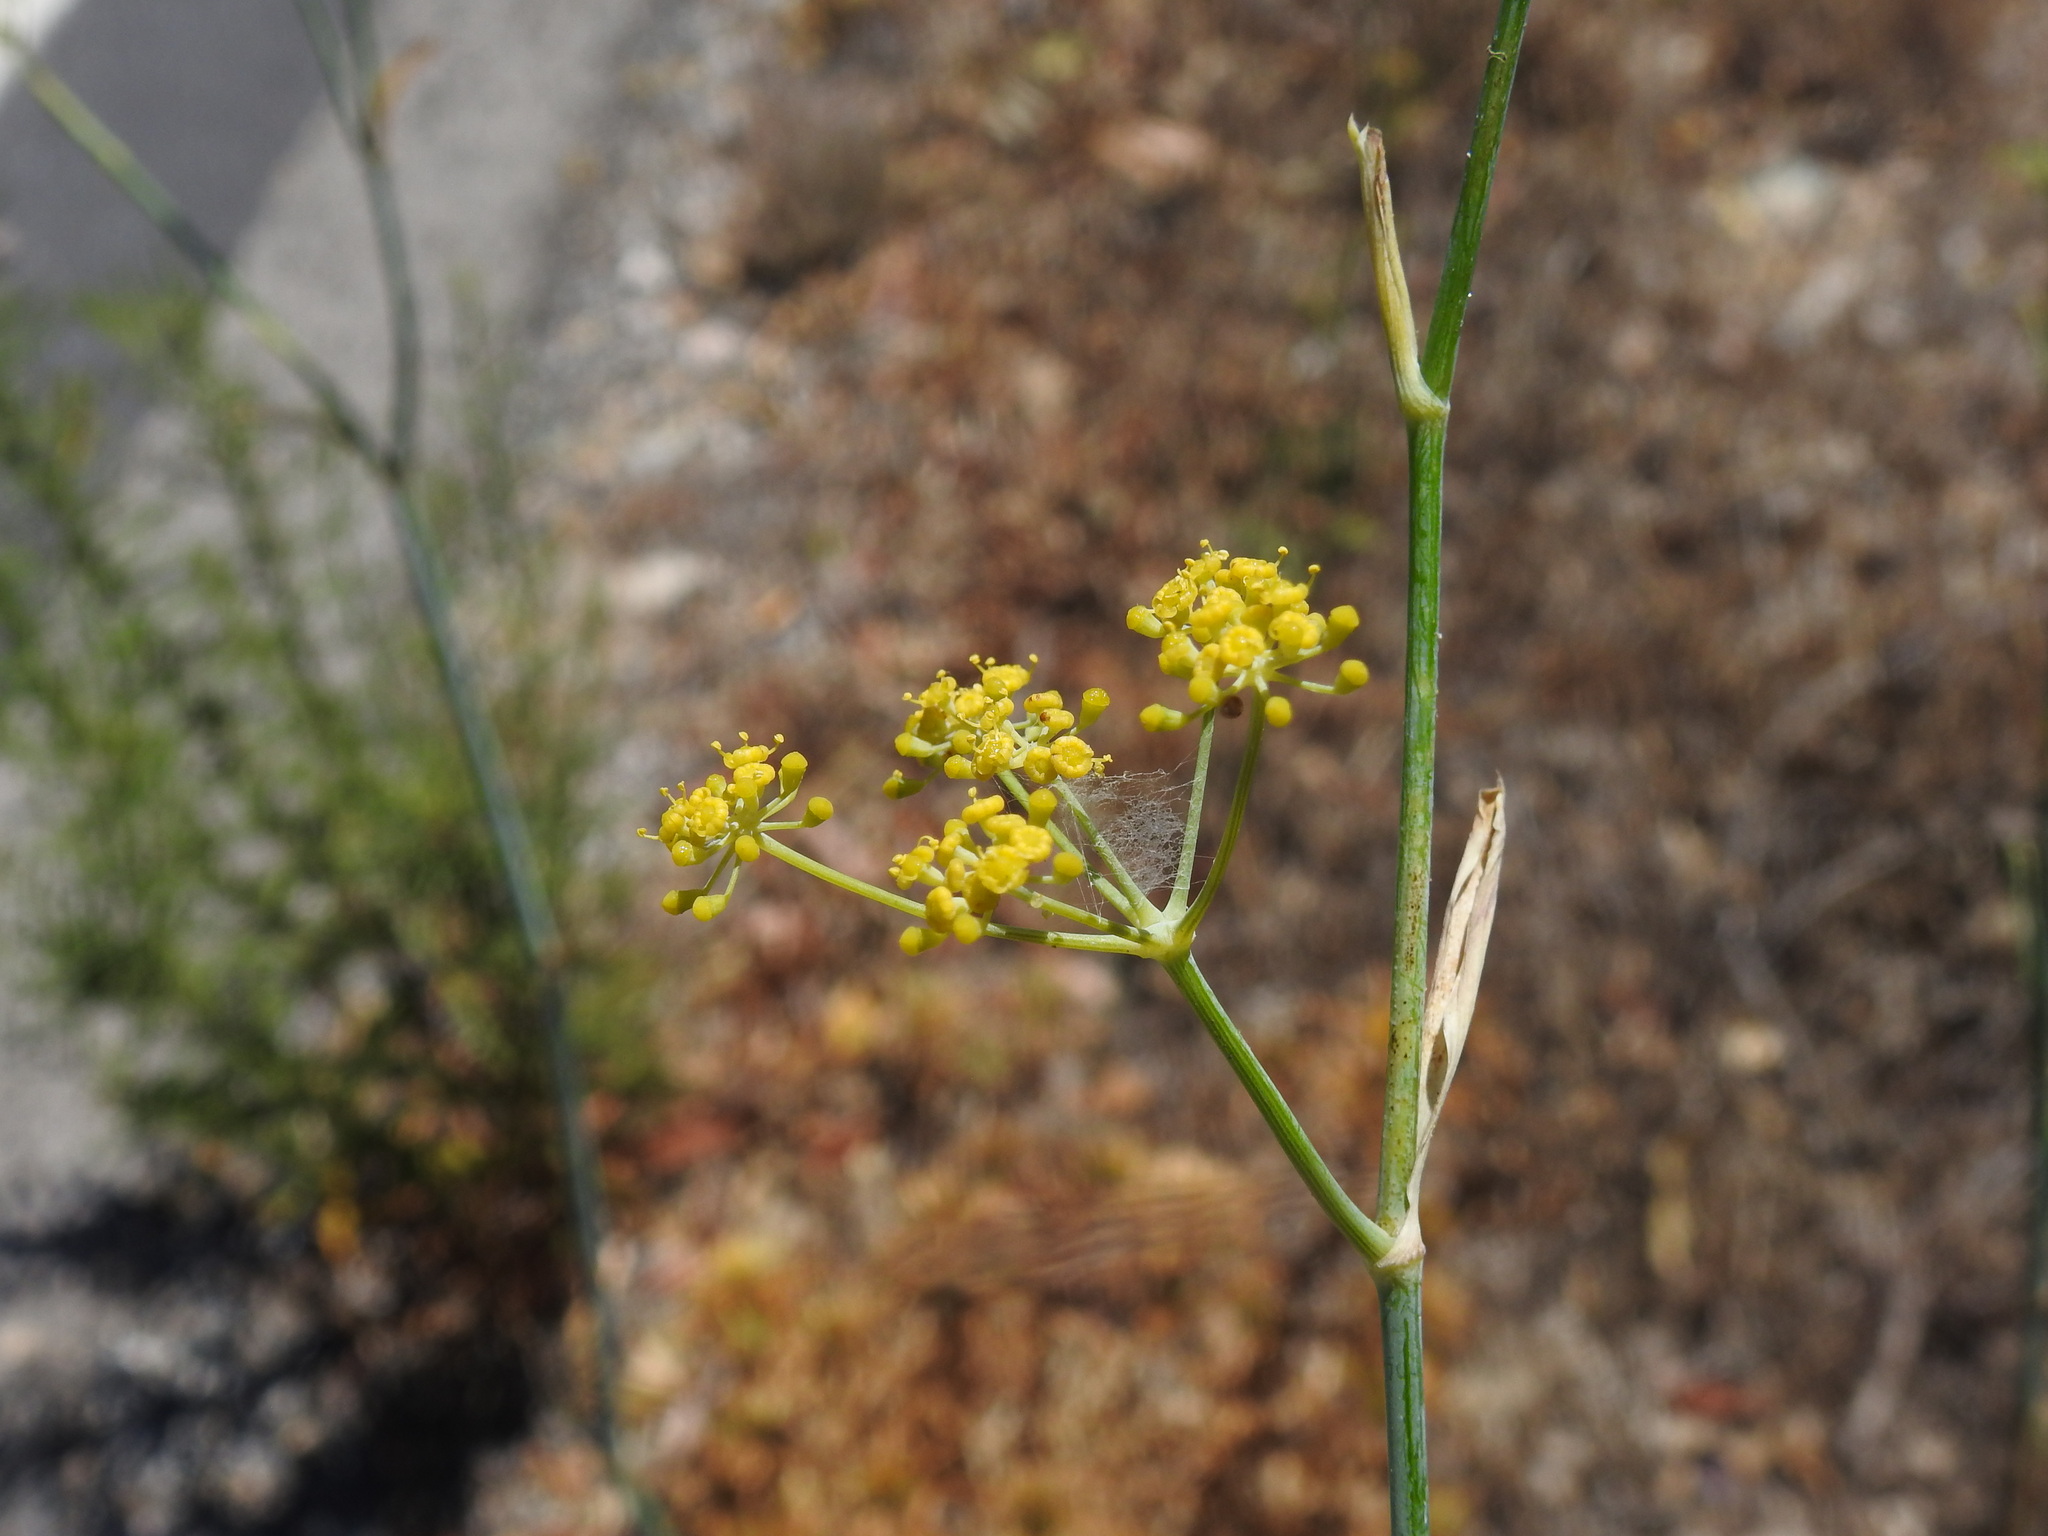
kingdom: Plantae
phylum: Tracheophyta
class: Magnoliopsida
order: Apiales
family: Apiaceae
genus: Foeniculum
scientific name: Foeniculum vulgare
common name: Fennel
